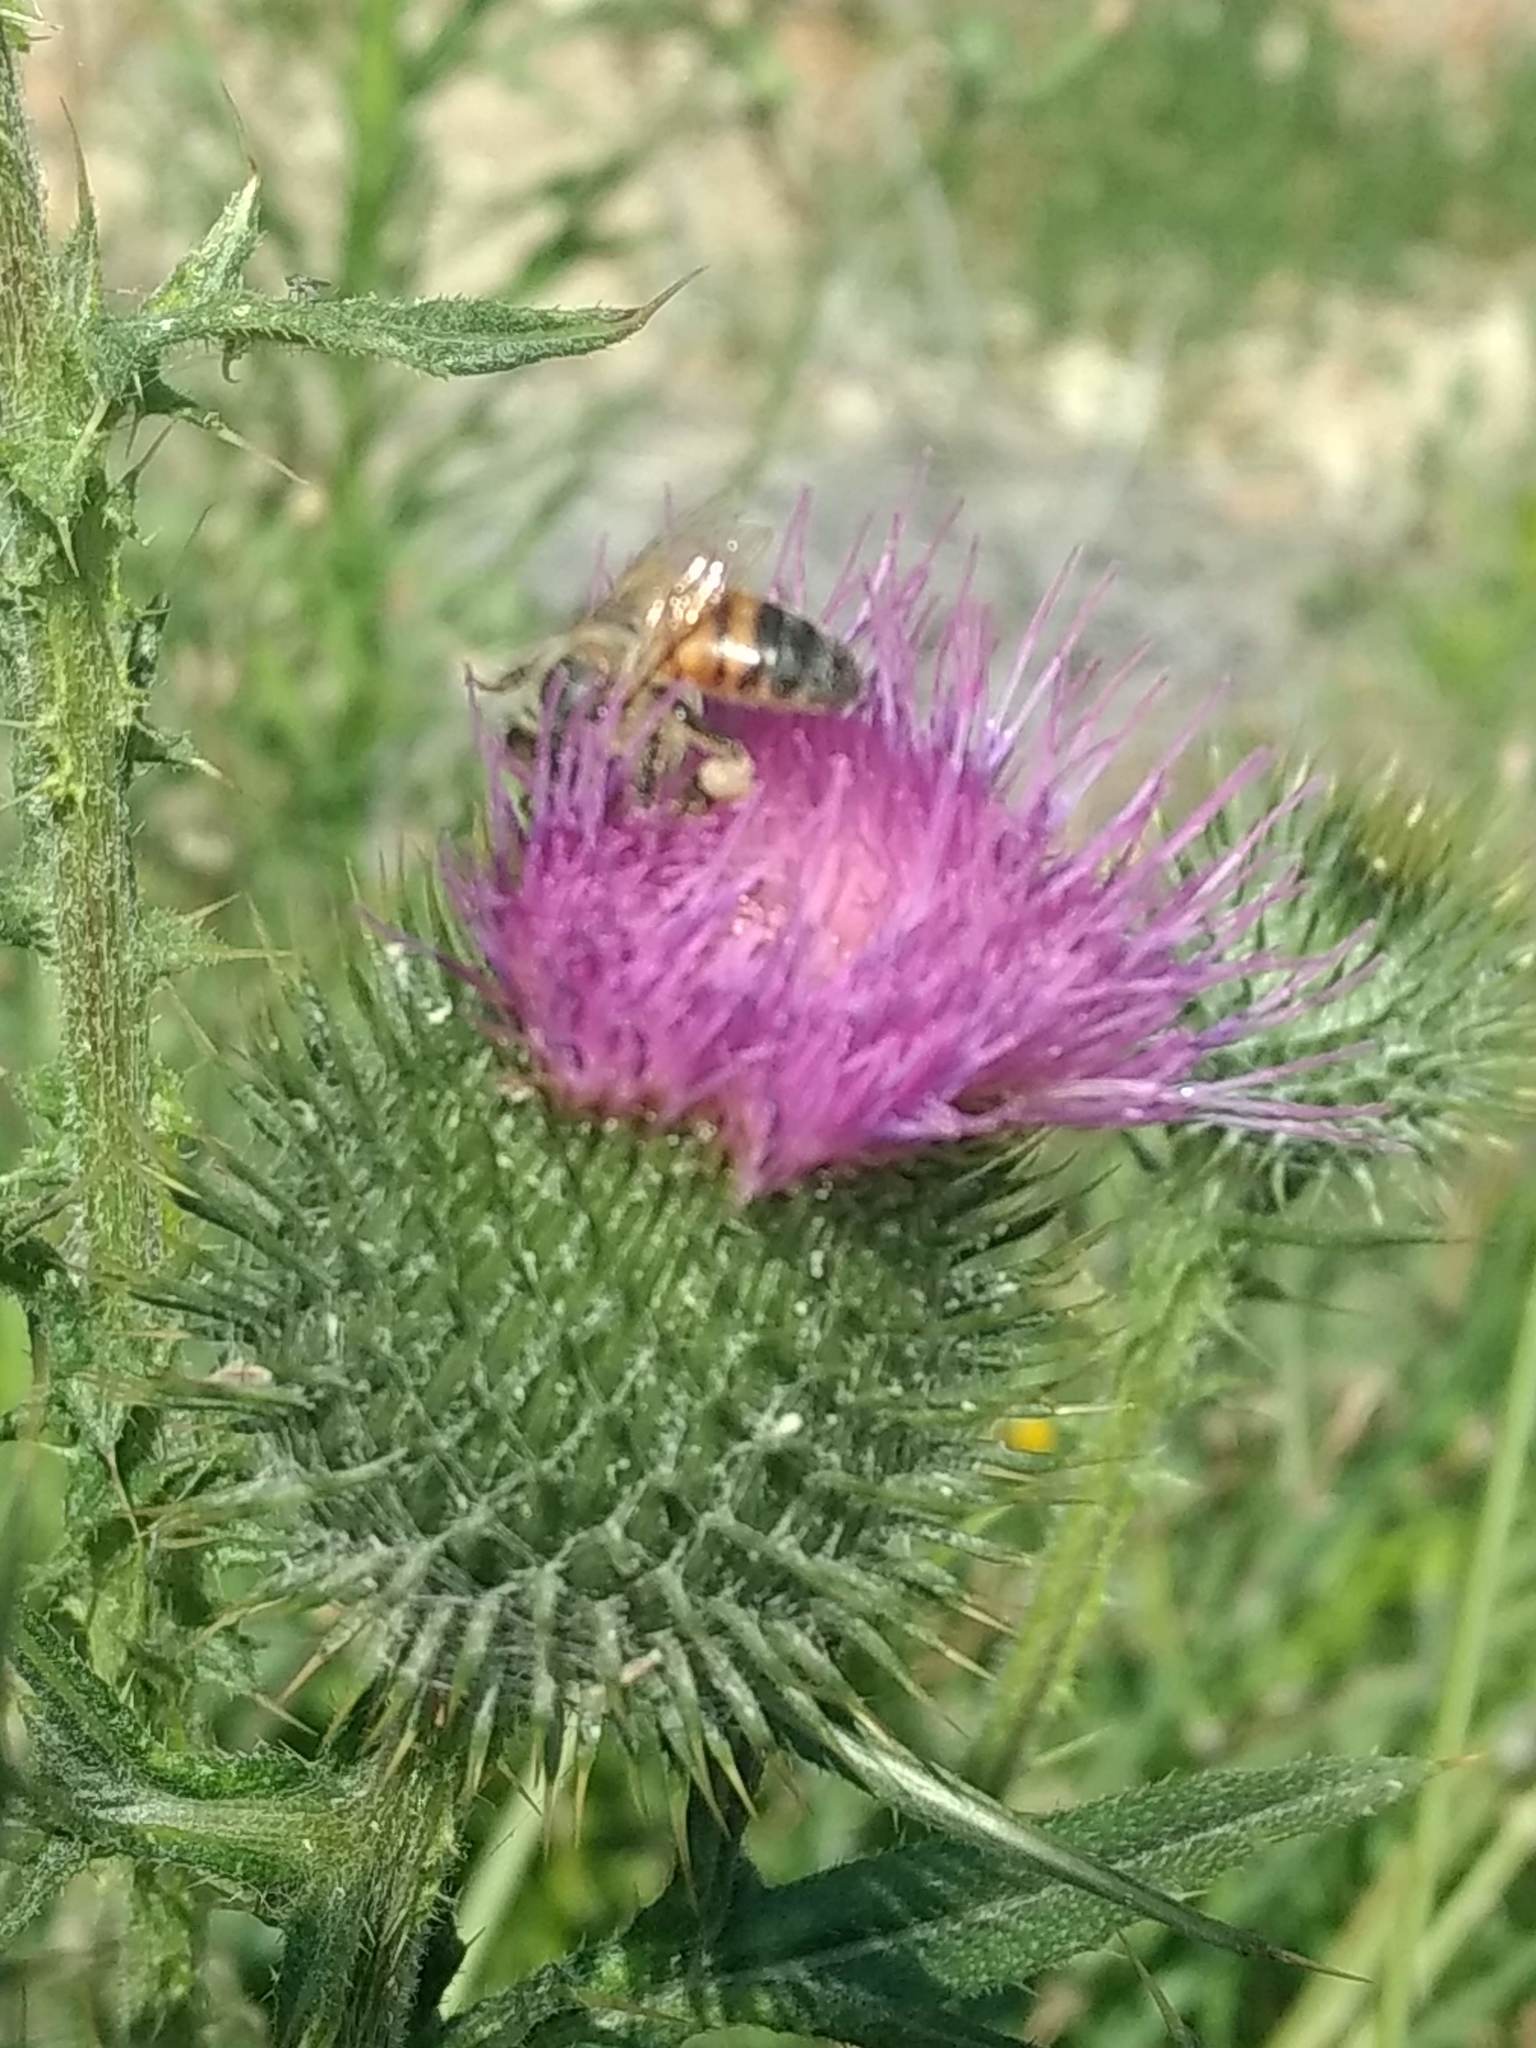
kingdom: Animalia
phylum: Arthropoda
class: Insecta
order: Hymenoptera
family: Apidae
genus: Apis
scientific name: Apis mellifera
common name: Honey bee
